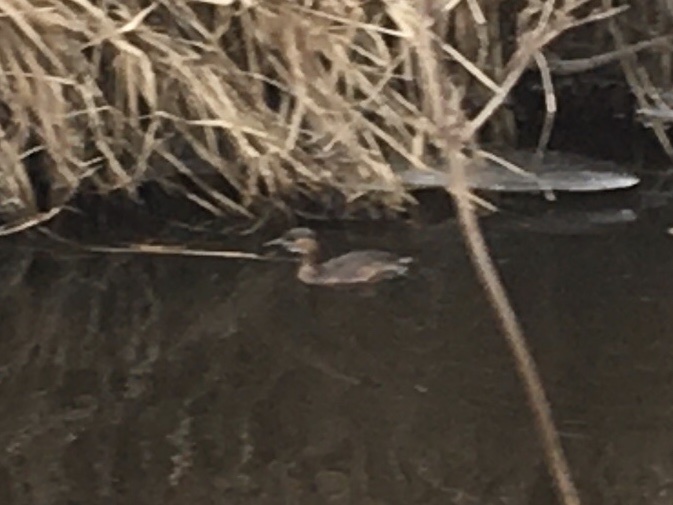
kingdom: Animalia
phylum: Chordata
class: Aves
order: Podicipediformes
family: Podicipedidae
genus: Tachybaptus
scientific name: Tachybaptus ruficollis
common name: Little grebe
